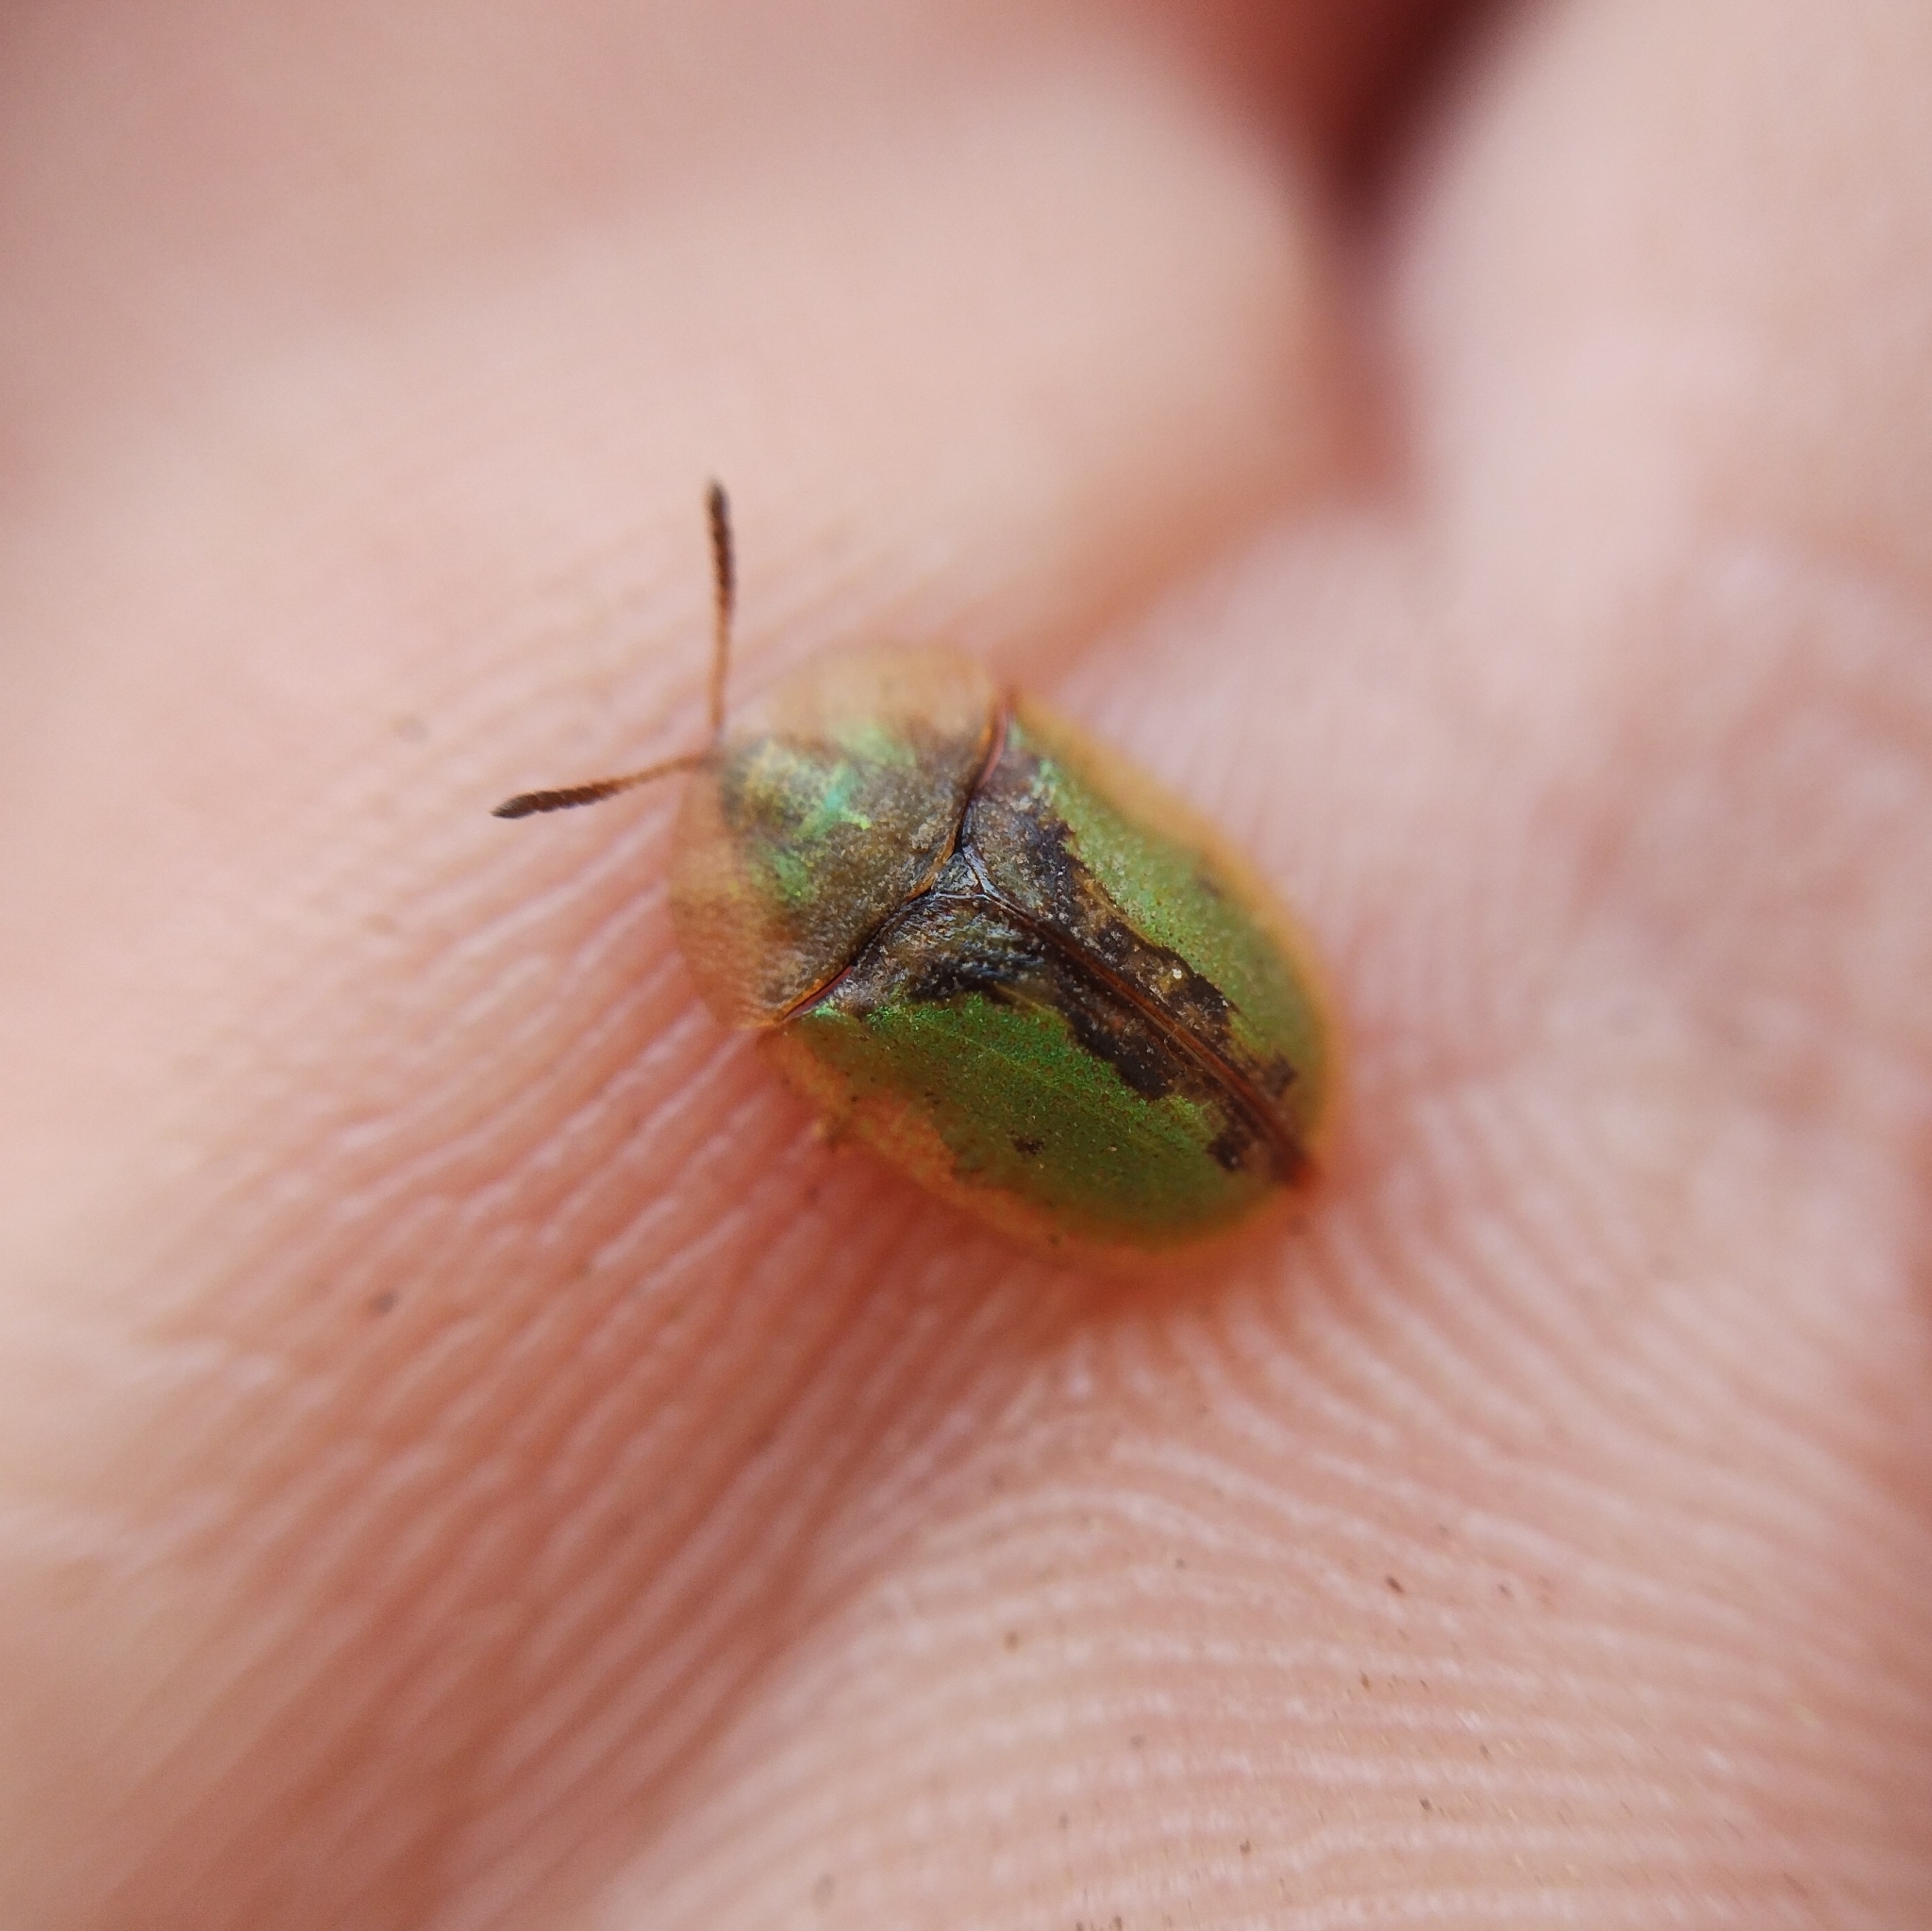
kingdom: Animalia
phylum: Arthropoda
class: Insecta
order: Coleoptera
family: Chrysomelidae
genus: Cassida
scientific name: Cassida vibex
